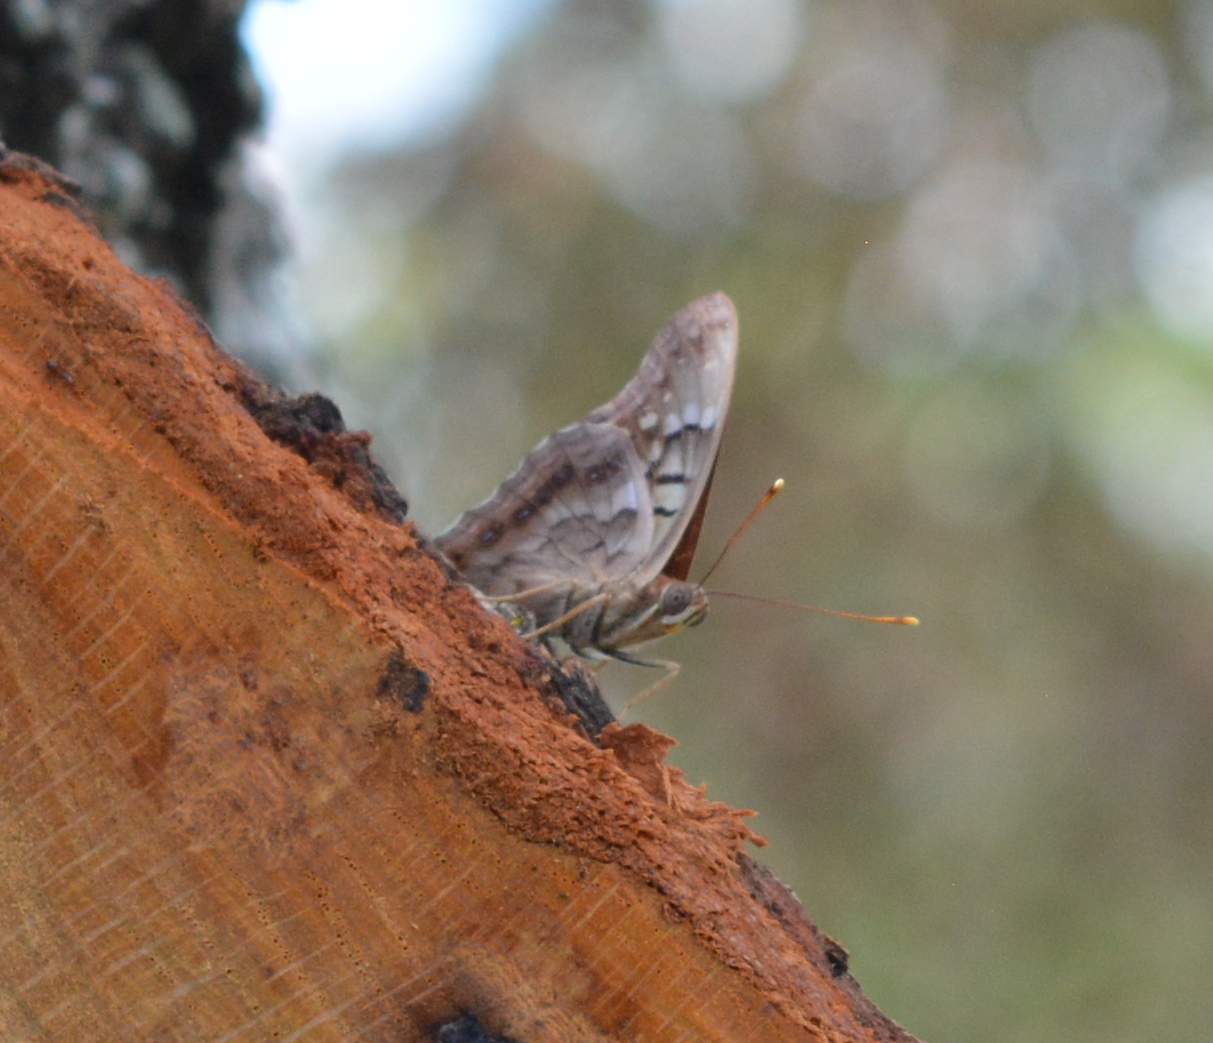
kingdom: Animalia
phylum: Arthropoda
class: Insecta
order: Lepidoptera
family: Nymphalidae
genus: Asterocampa
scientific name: Asterocampa clyton
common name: Tawny emperor
